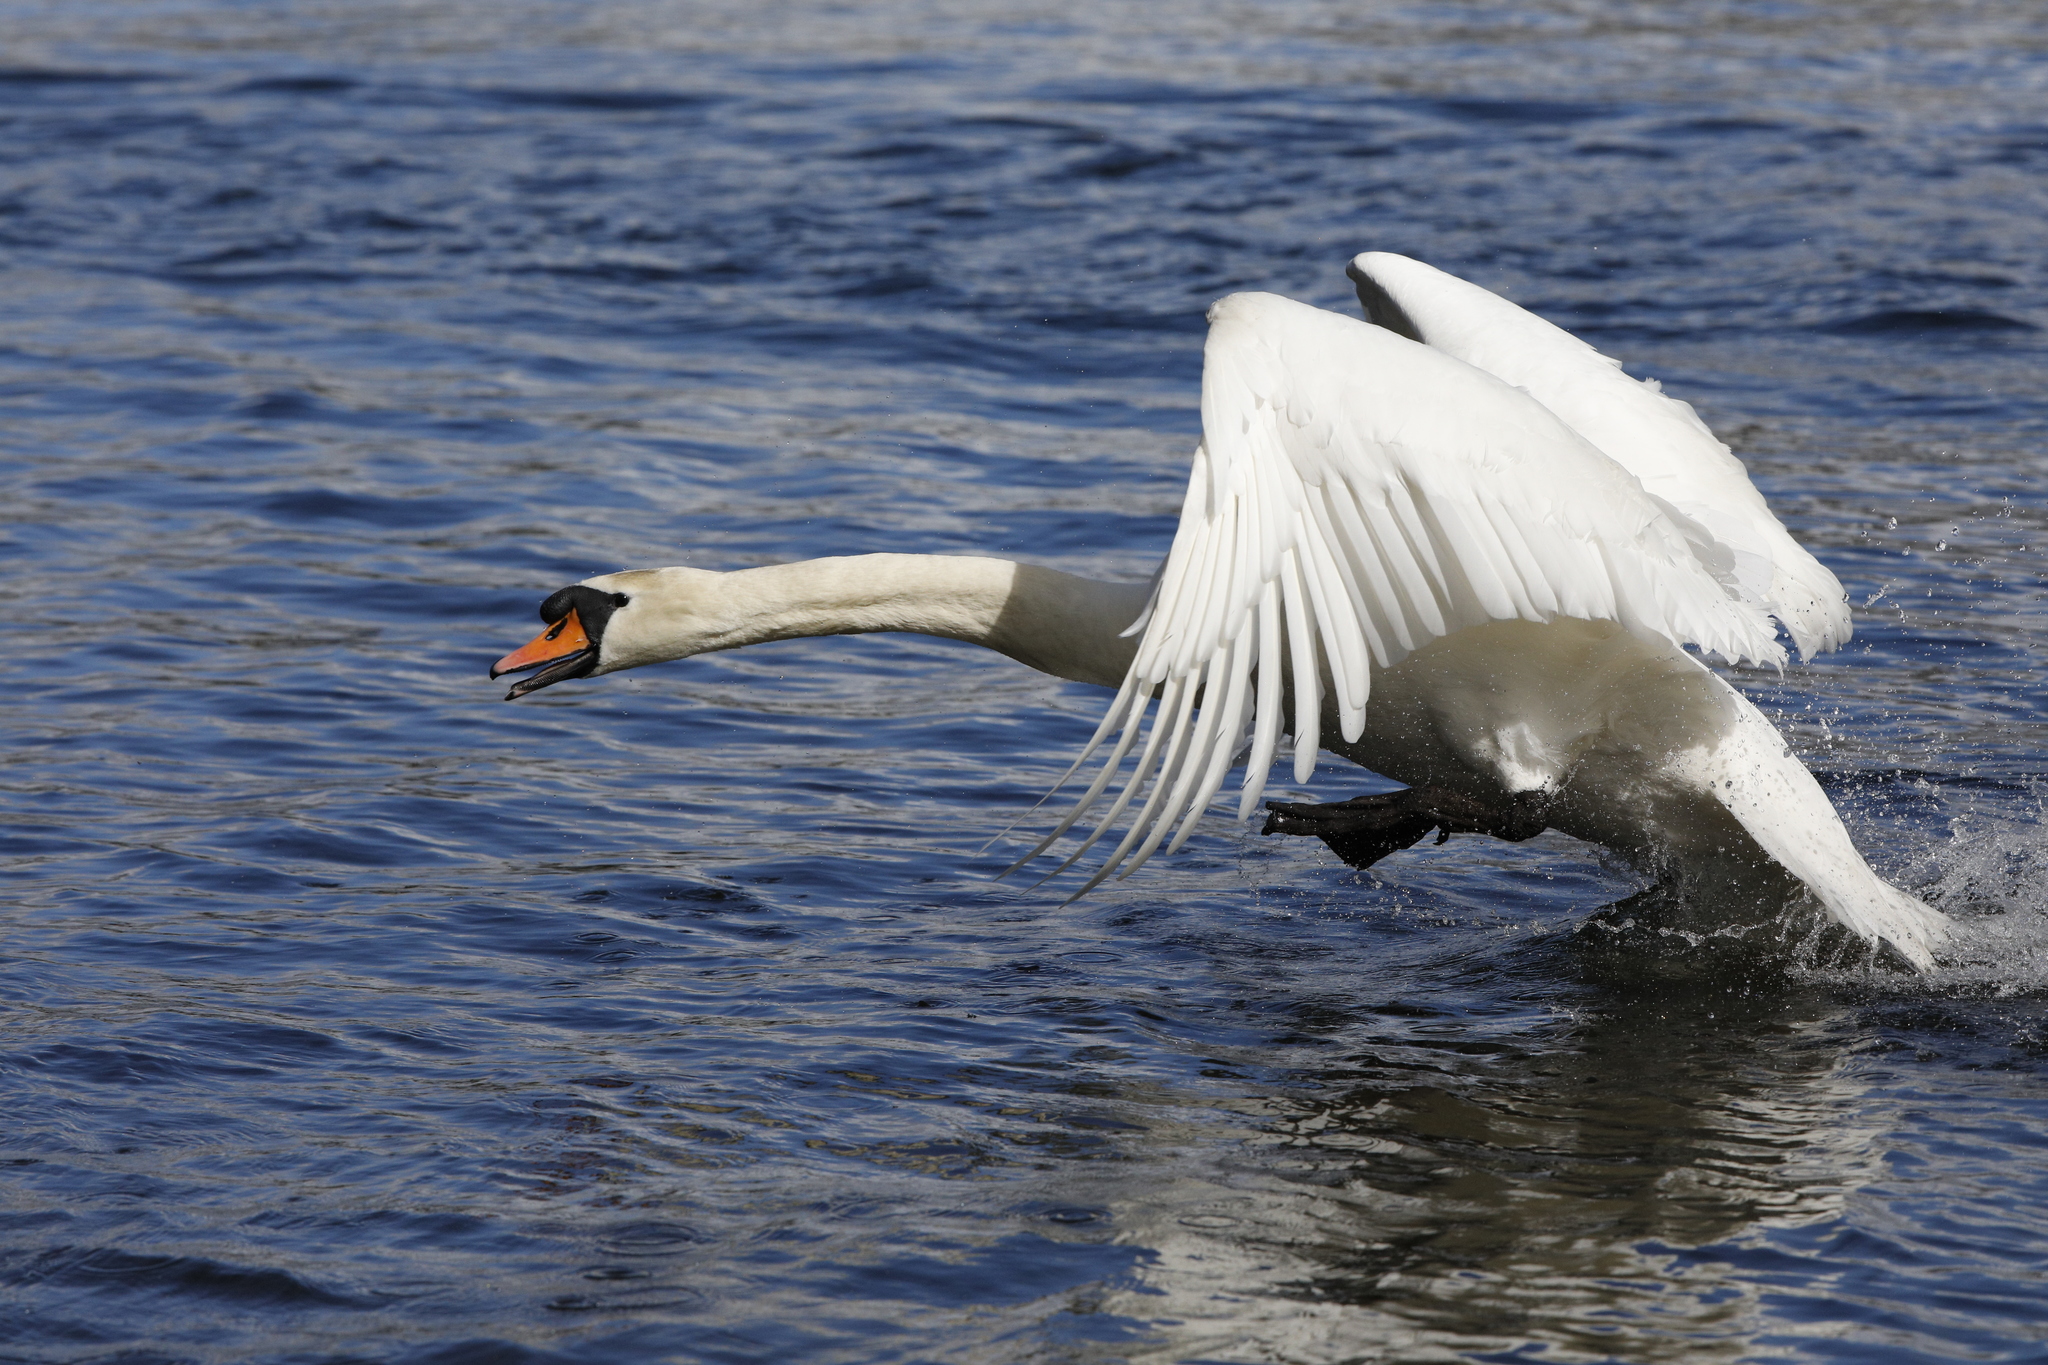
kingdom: Animalia
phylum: Chordata
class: Aves
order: Anseriformes
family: Anatidae
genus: Cygnus
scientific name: Cygnus olor
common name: Mute swan
